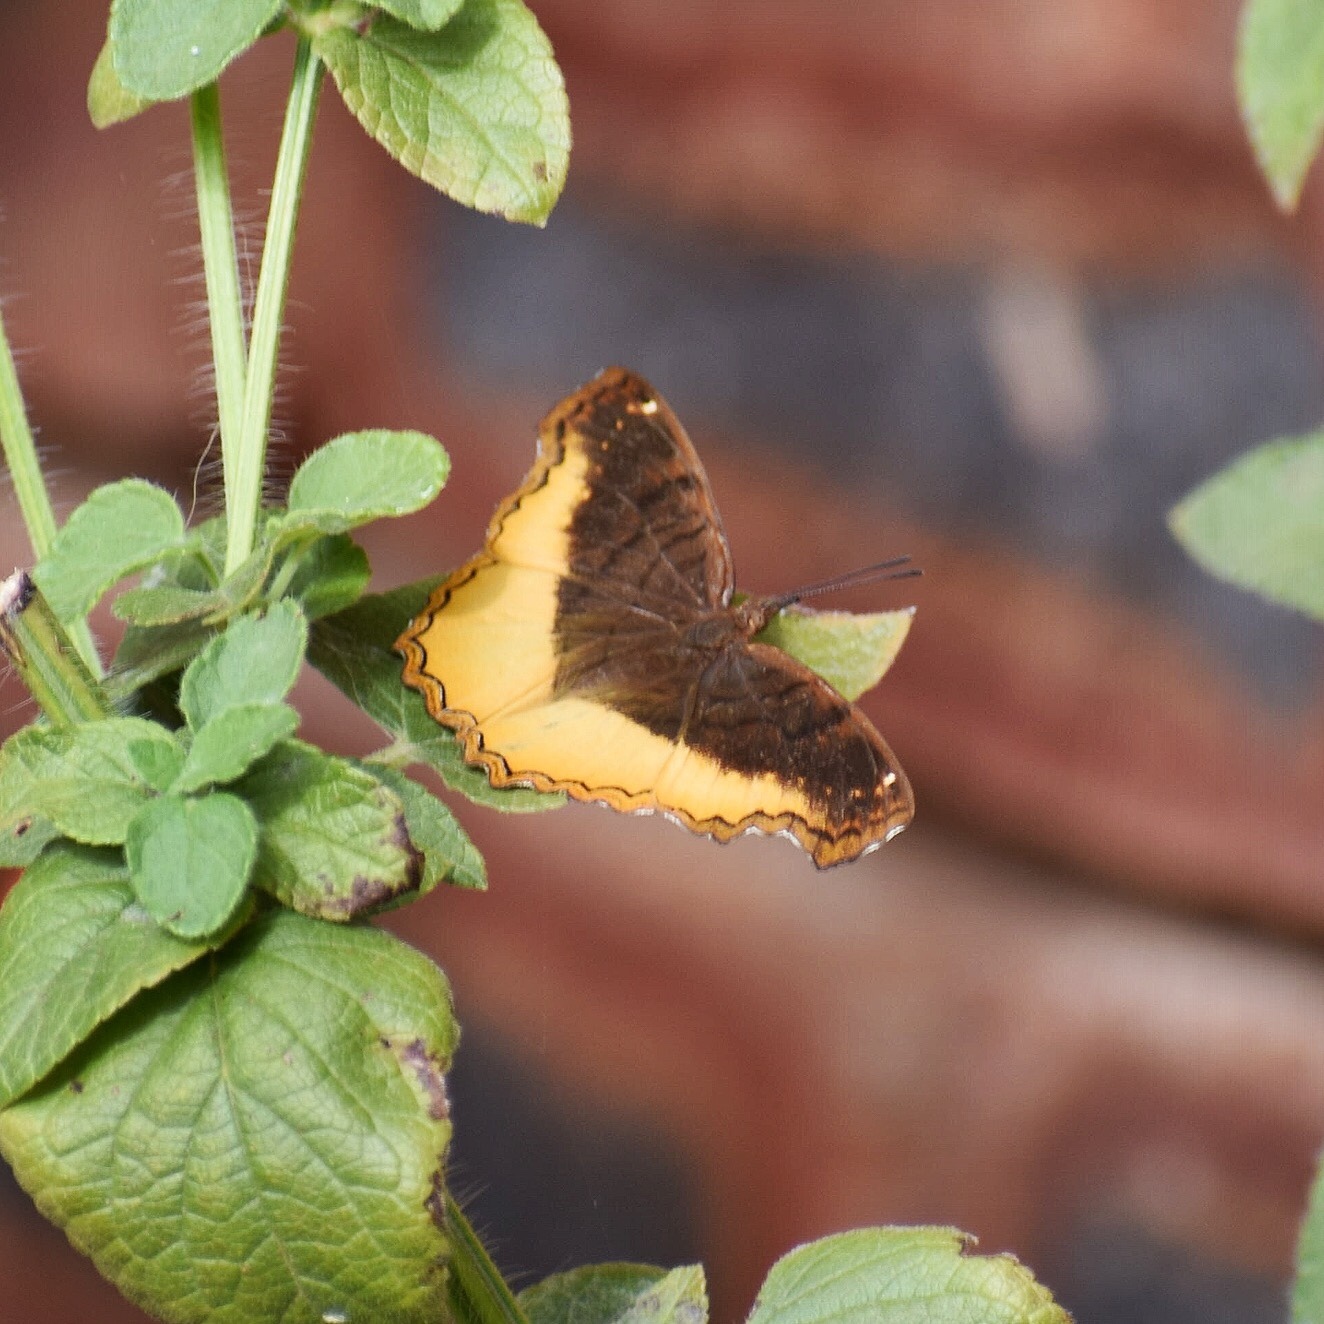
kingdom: Animalia
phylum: Arthropoda
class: Insecta
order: Lepidoptera
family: Nymphalidae
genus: Eurytela
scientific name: Eurytela dryope
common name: Golden piper
